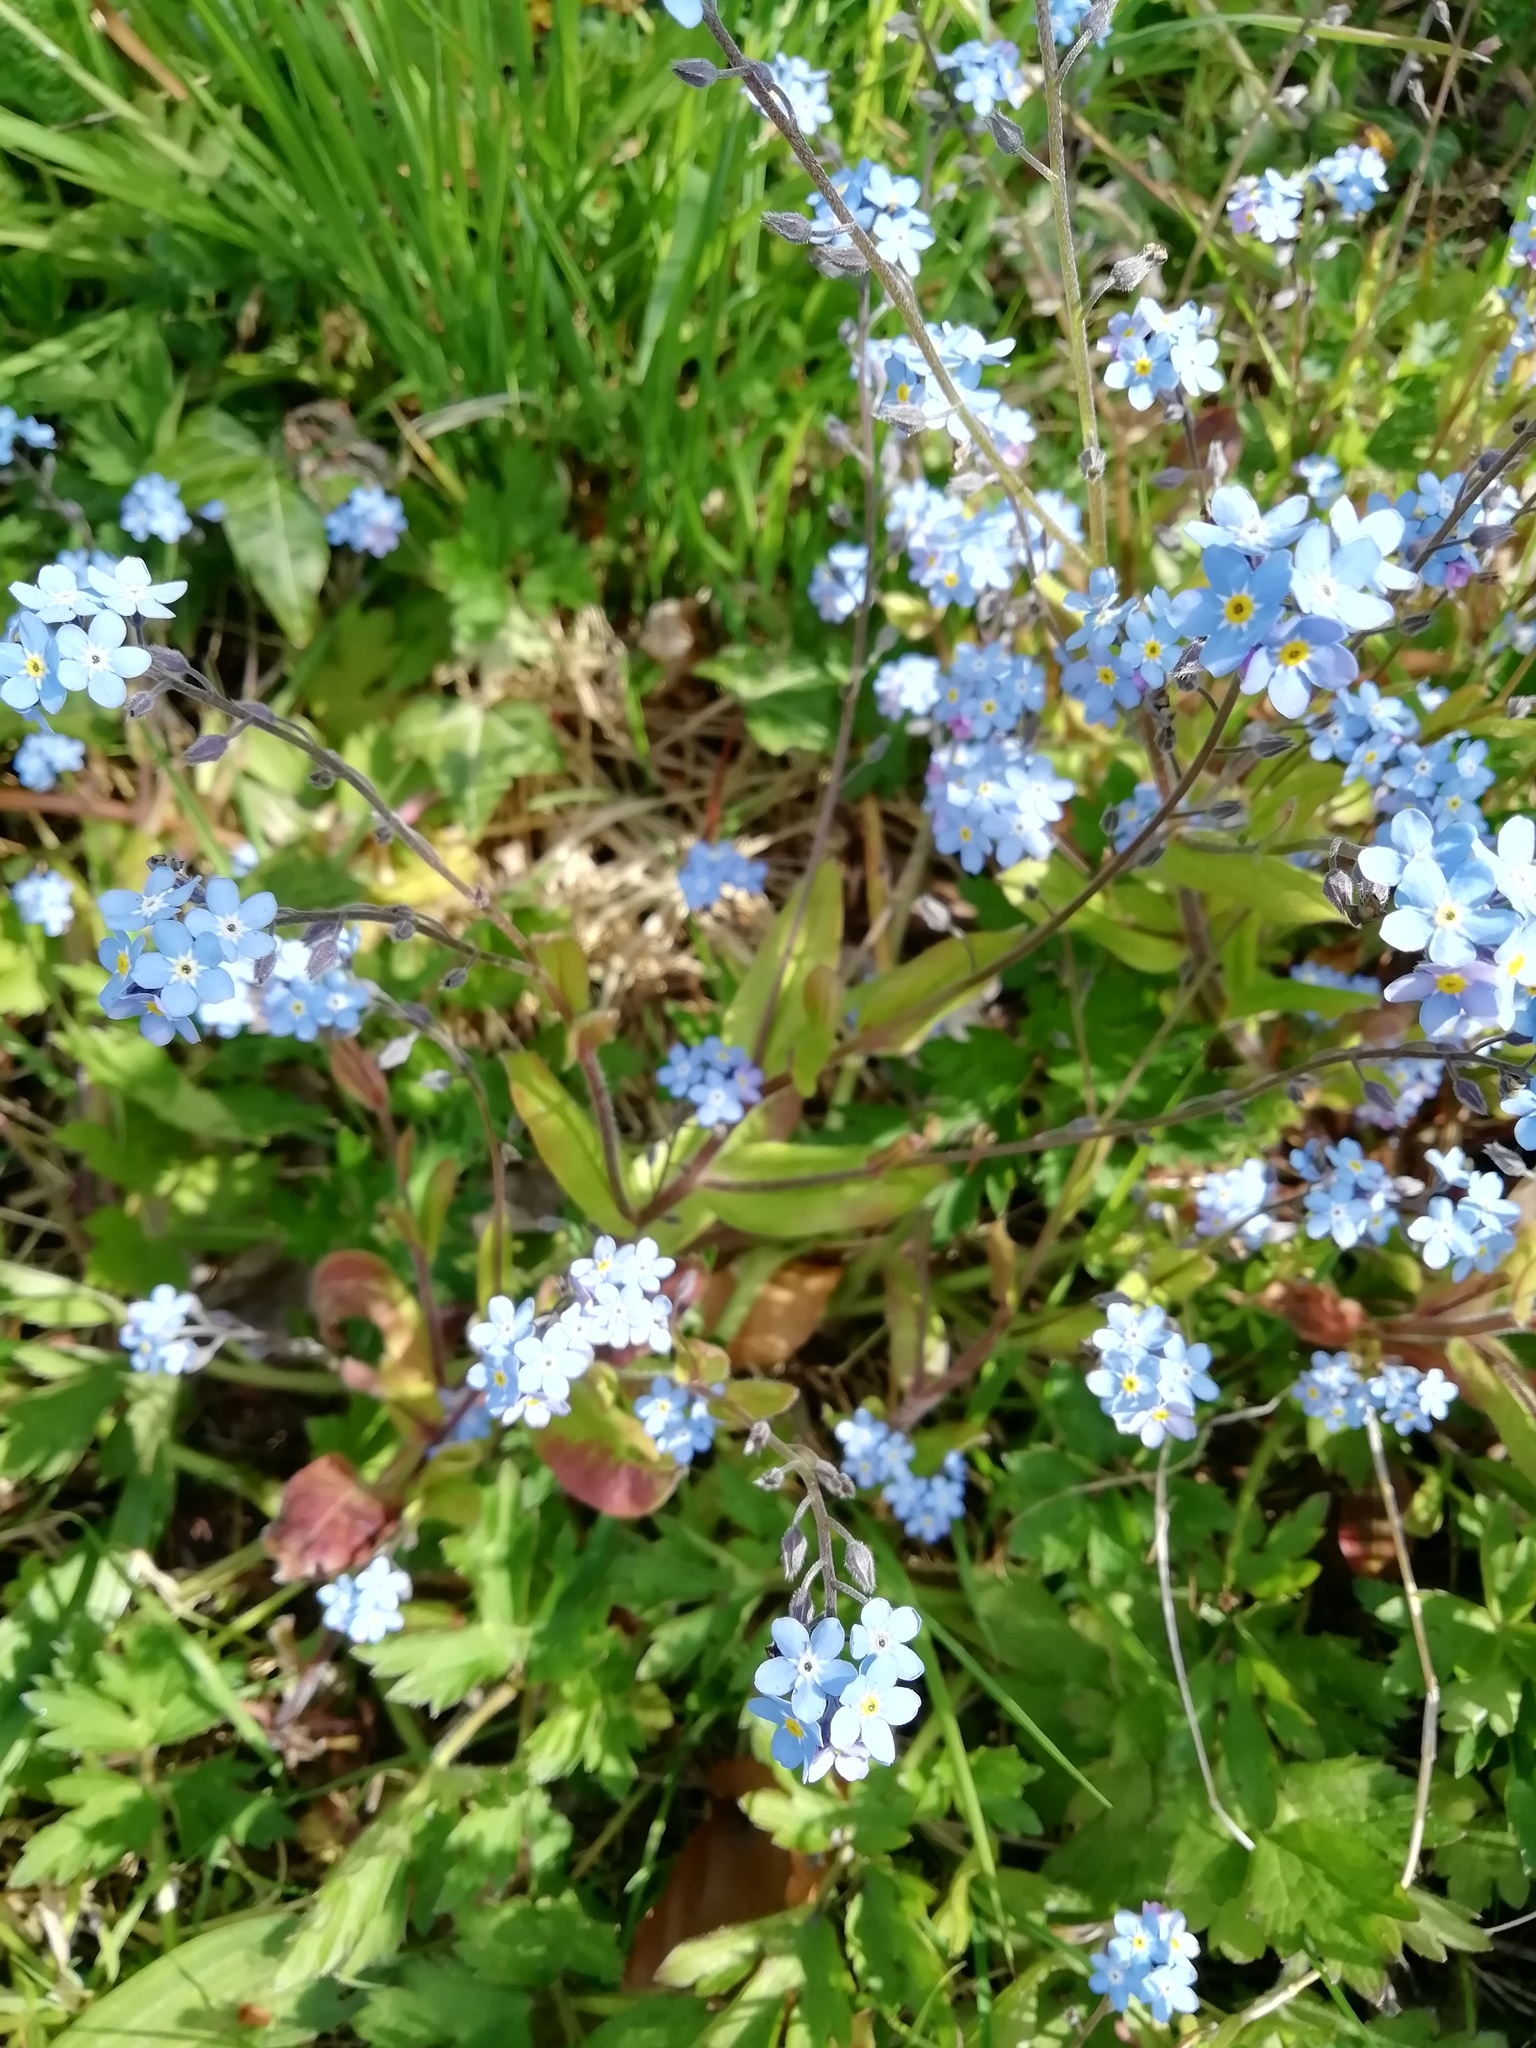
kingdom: Plantae
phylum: Tracheophyta
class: Magnoliopsida
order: Boraginales
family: Boraginaceae
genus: Myosotis
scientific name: Myosotis sylvatica
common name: Wood forget-me-not
